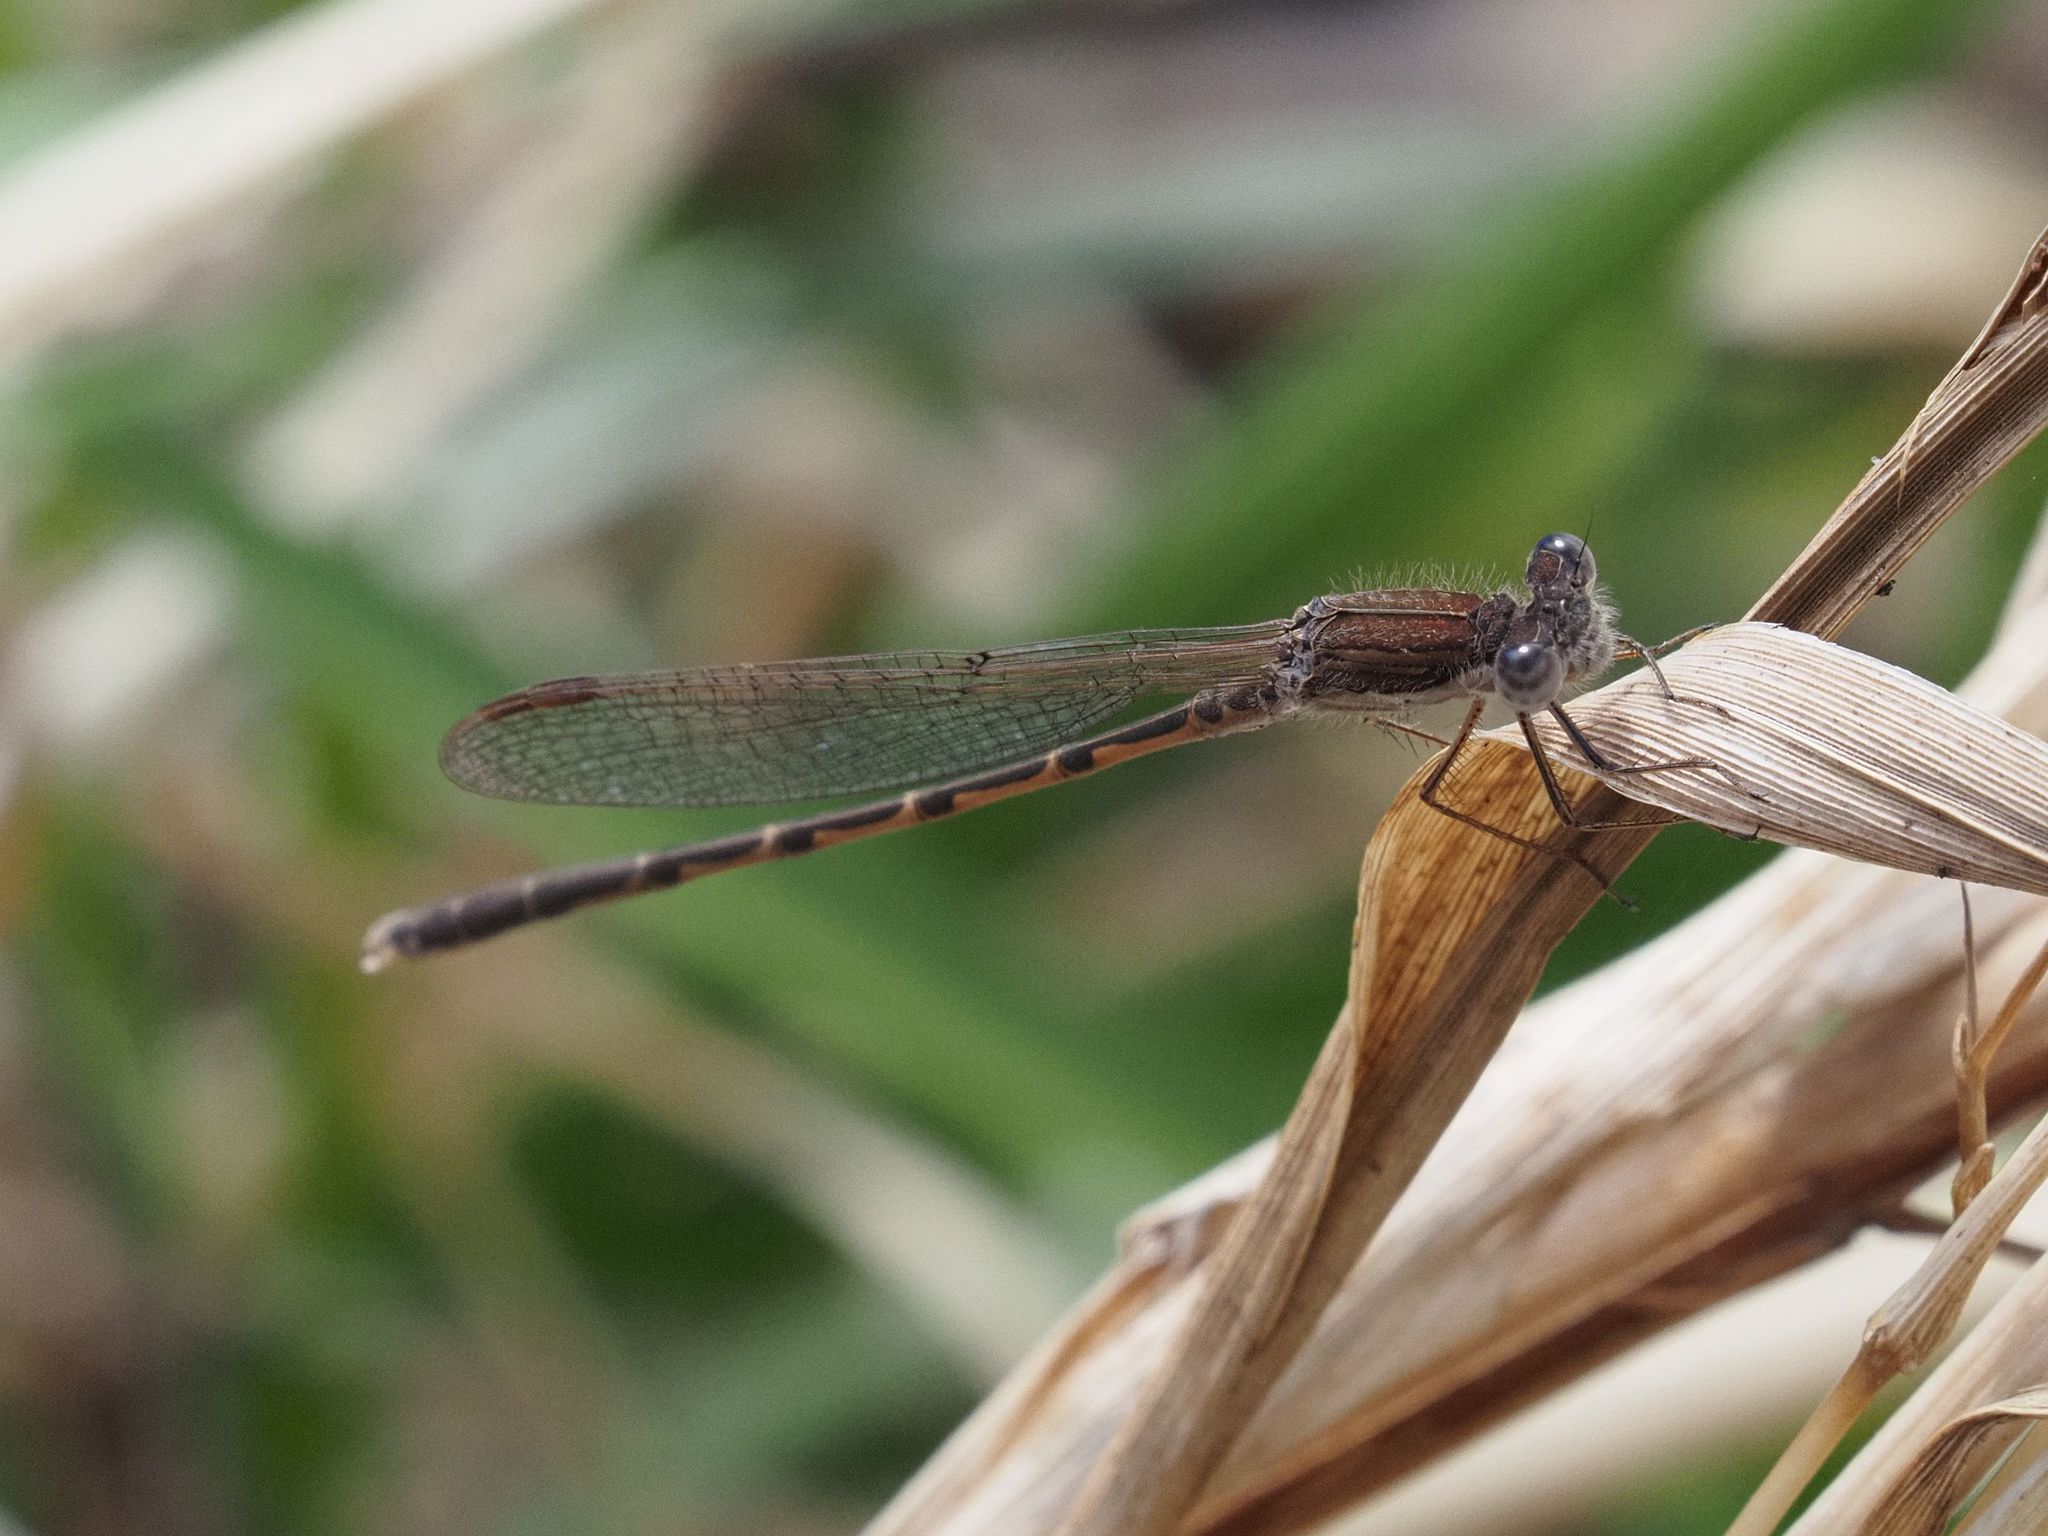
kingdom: Animalia
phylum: Arthropoda
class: Insecta
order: Odonata
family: Lestidae
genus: Sympecma
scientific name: Sympecma fusca
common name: Common winter damsel
